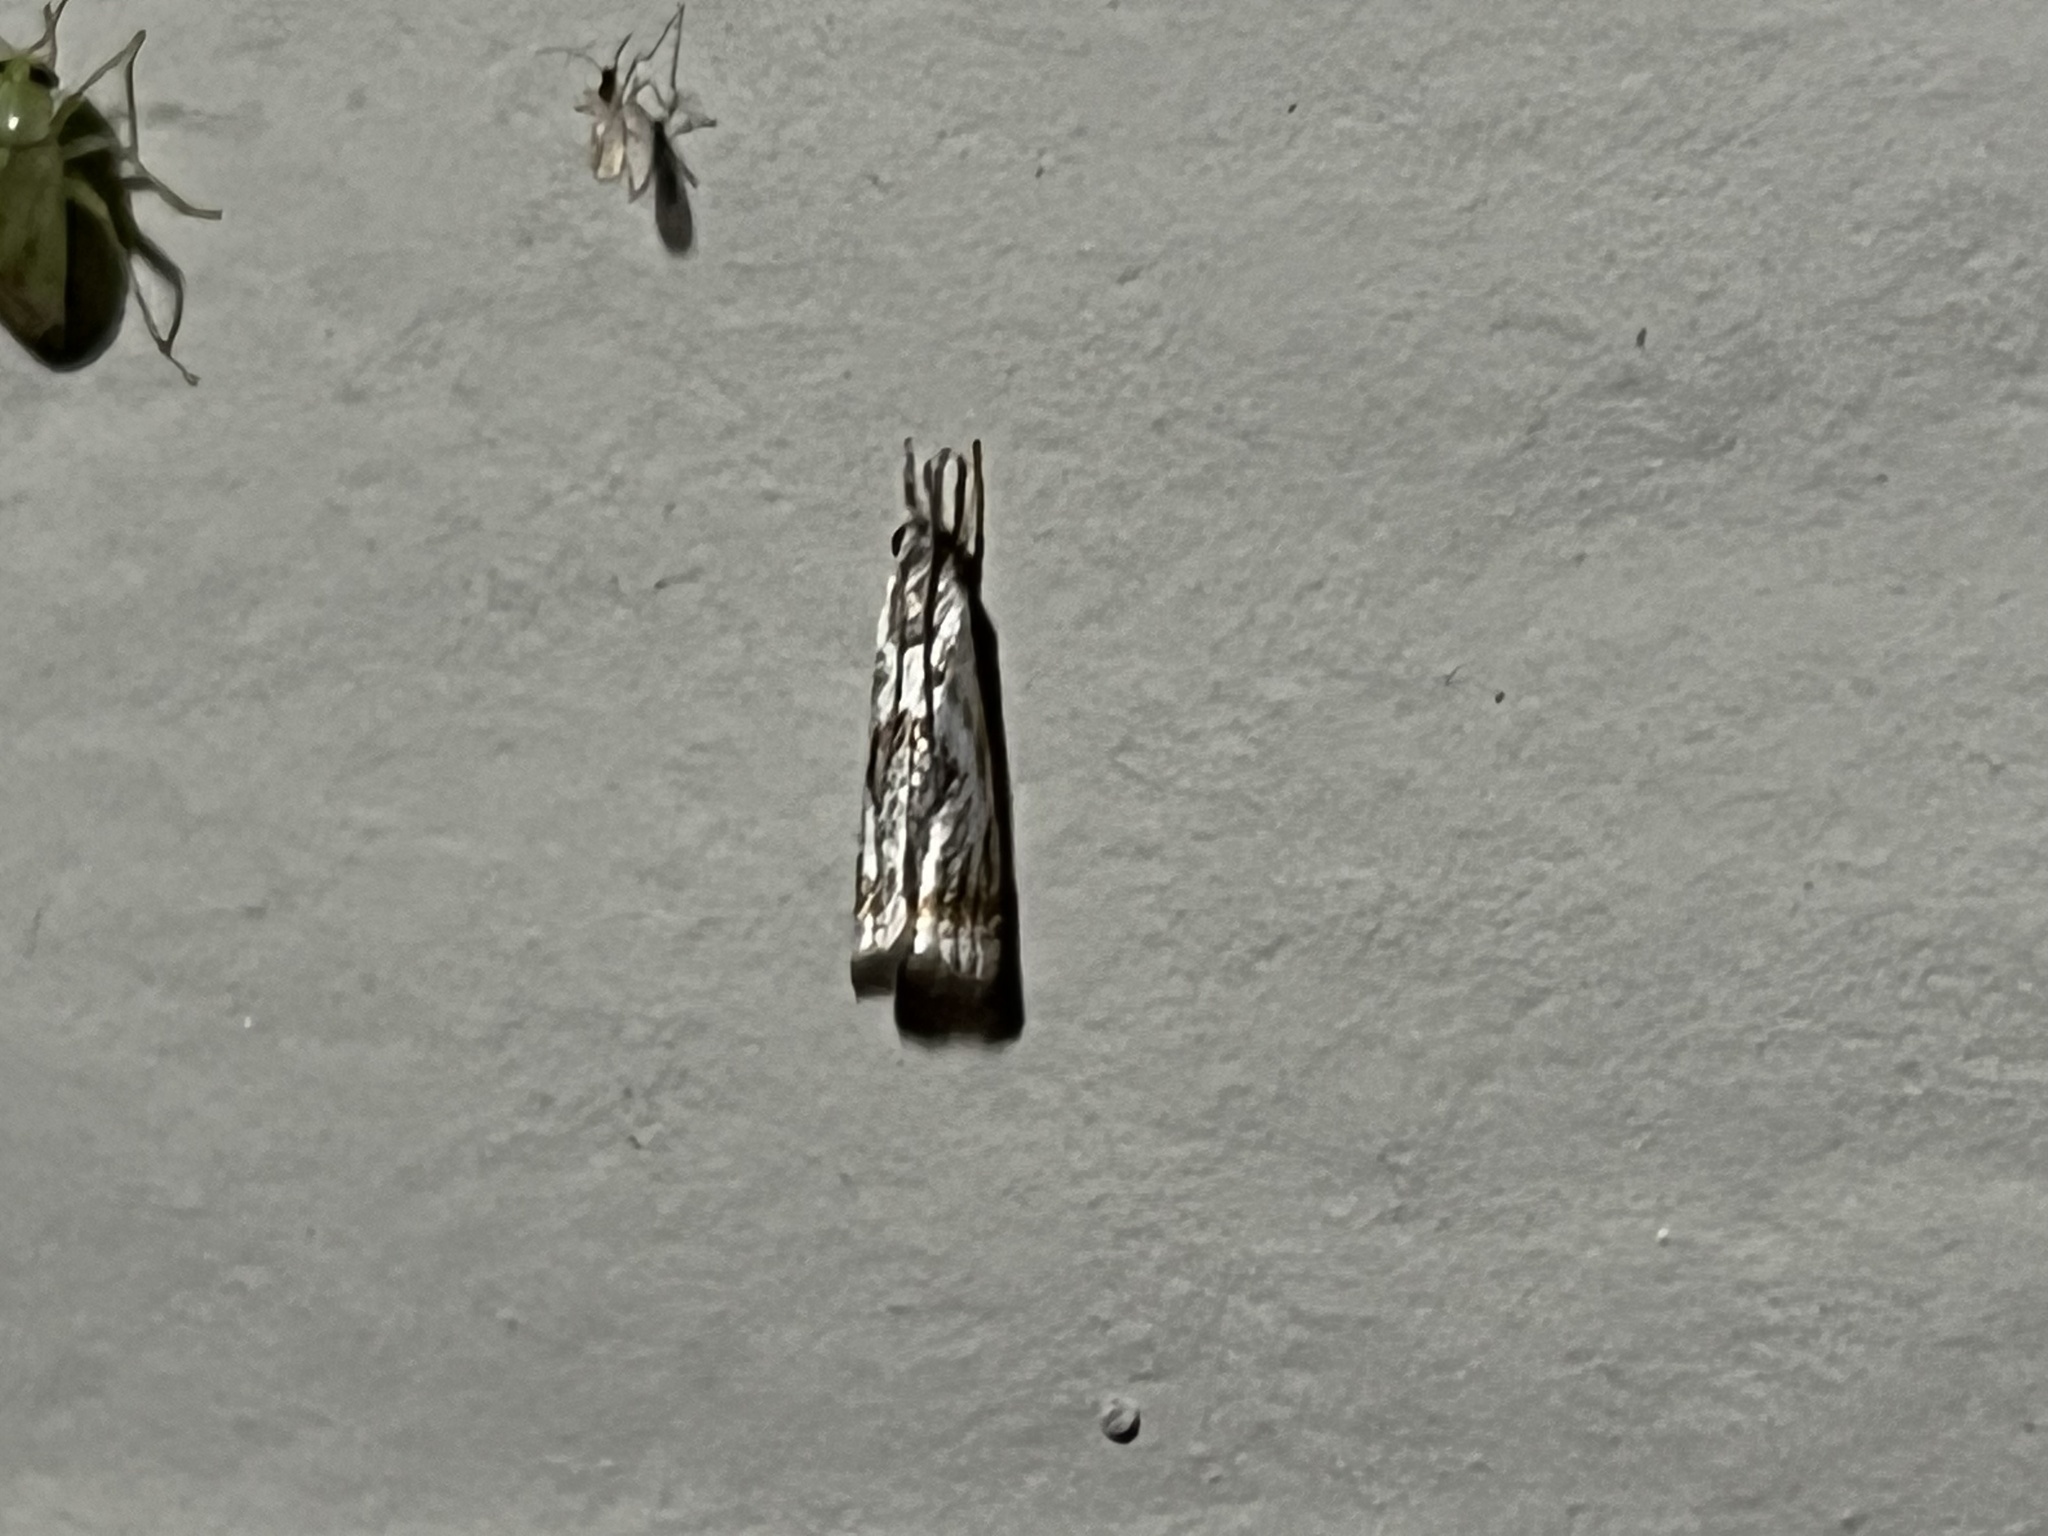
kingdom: Animalia
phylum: Arthropoda
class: Insecta
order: Lepidoptera
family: Crambidae
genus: Microcrambus
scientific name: Microcrambus elegans
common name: Elegant grass-veneer
